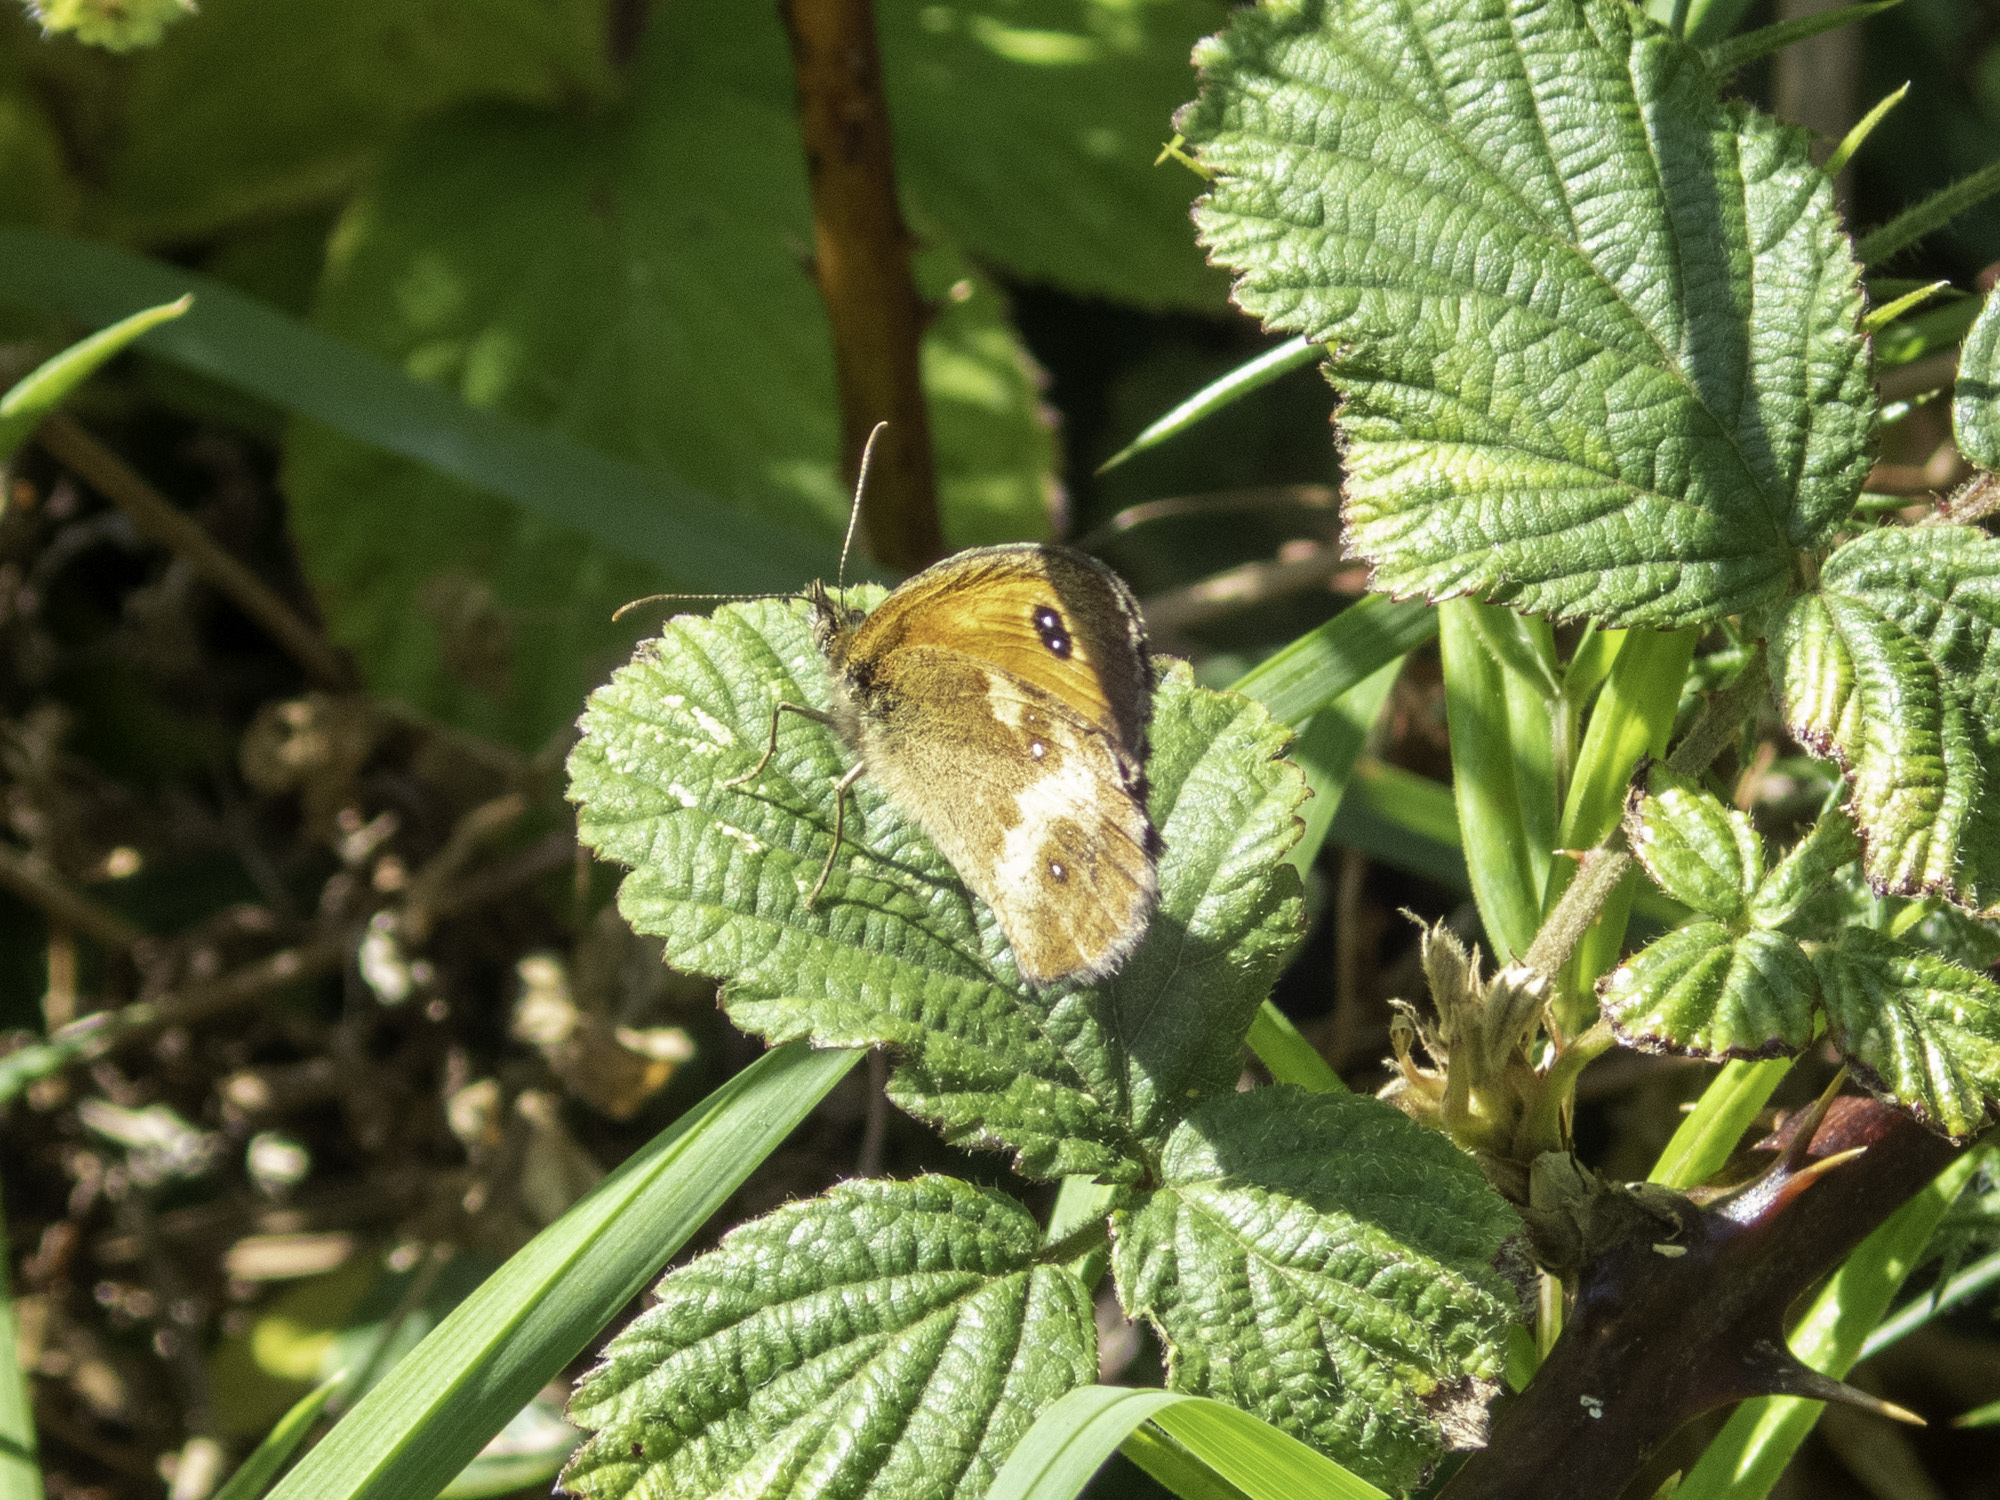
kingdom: Animalia
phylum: Arthropoda
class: Insecta
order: Lepidoptera
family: Nymphalidae
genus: Pyronia
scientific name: Pyronia tithonus
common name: Gatekeeper
